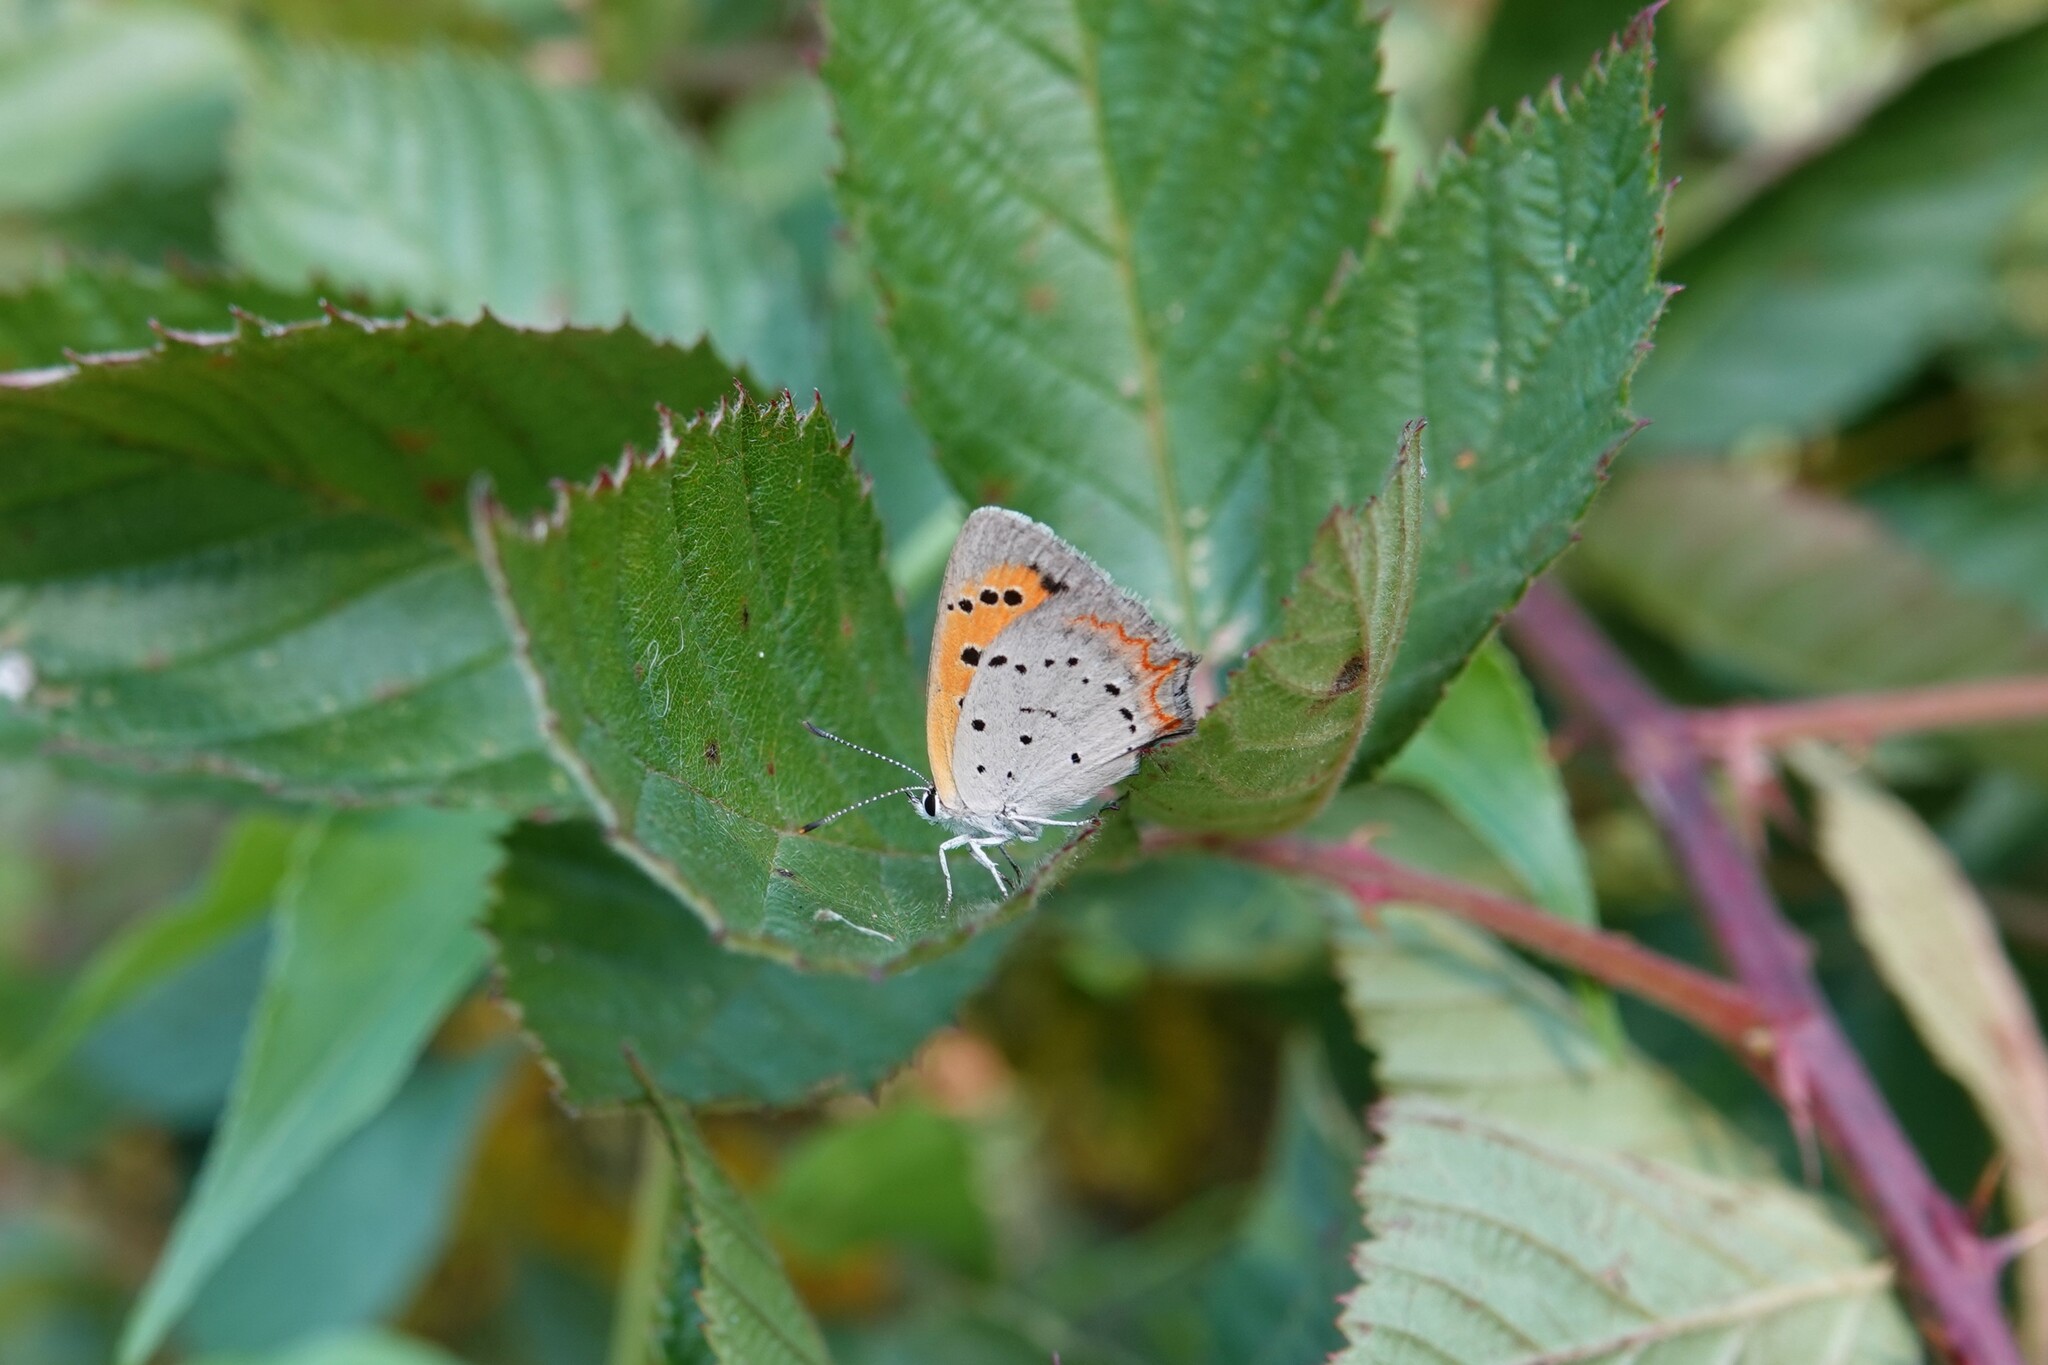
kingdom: Animalia
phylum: Arthropoda
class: Insecta
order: Lepidoptera
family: Lycaenidae
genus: Lycaena
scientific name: Lycaena hypophlaeas
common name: American copper
